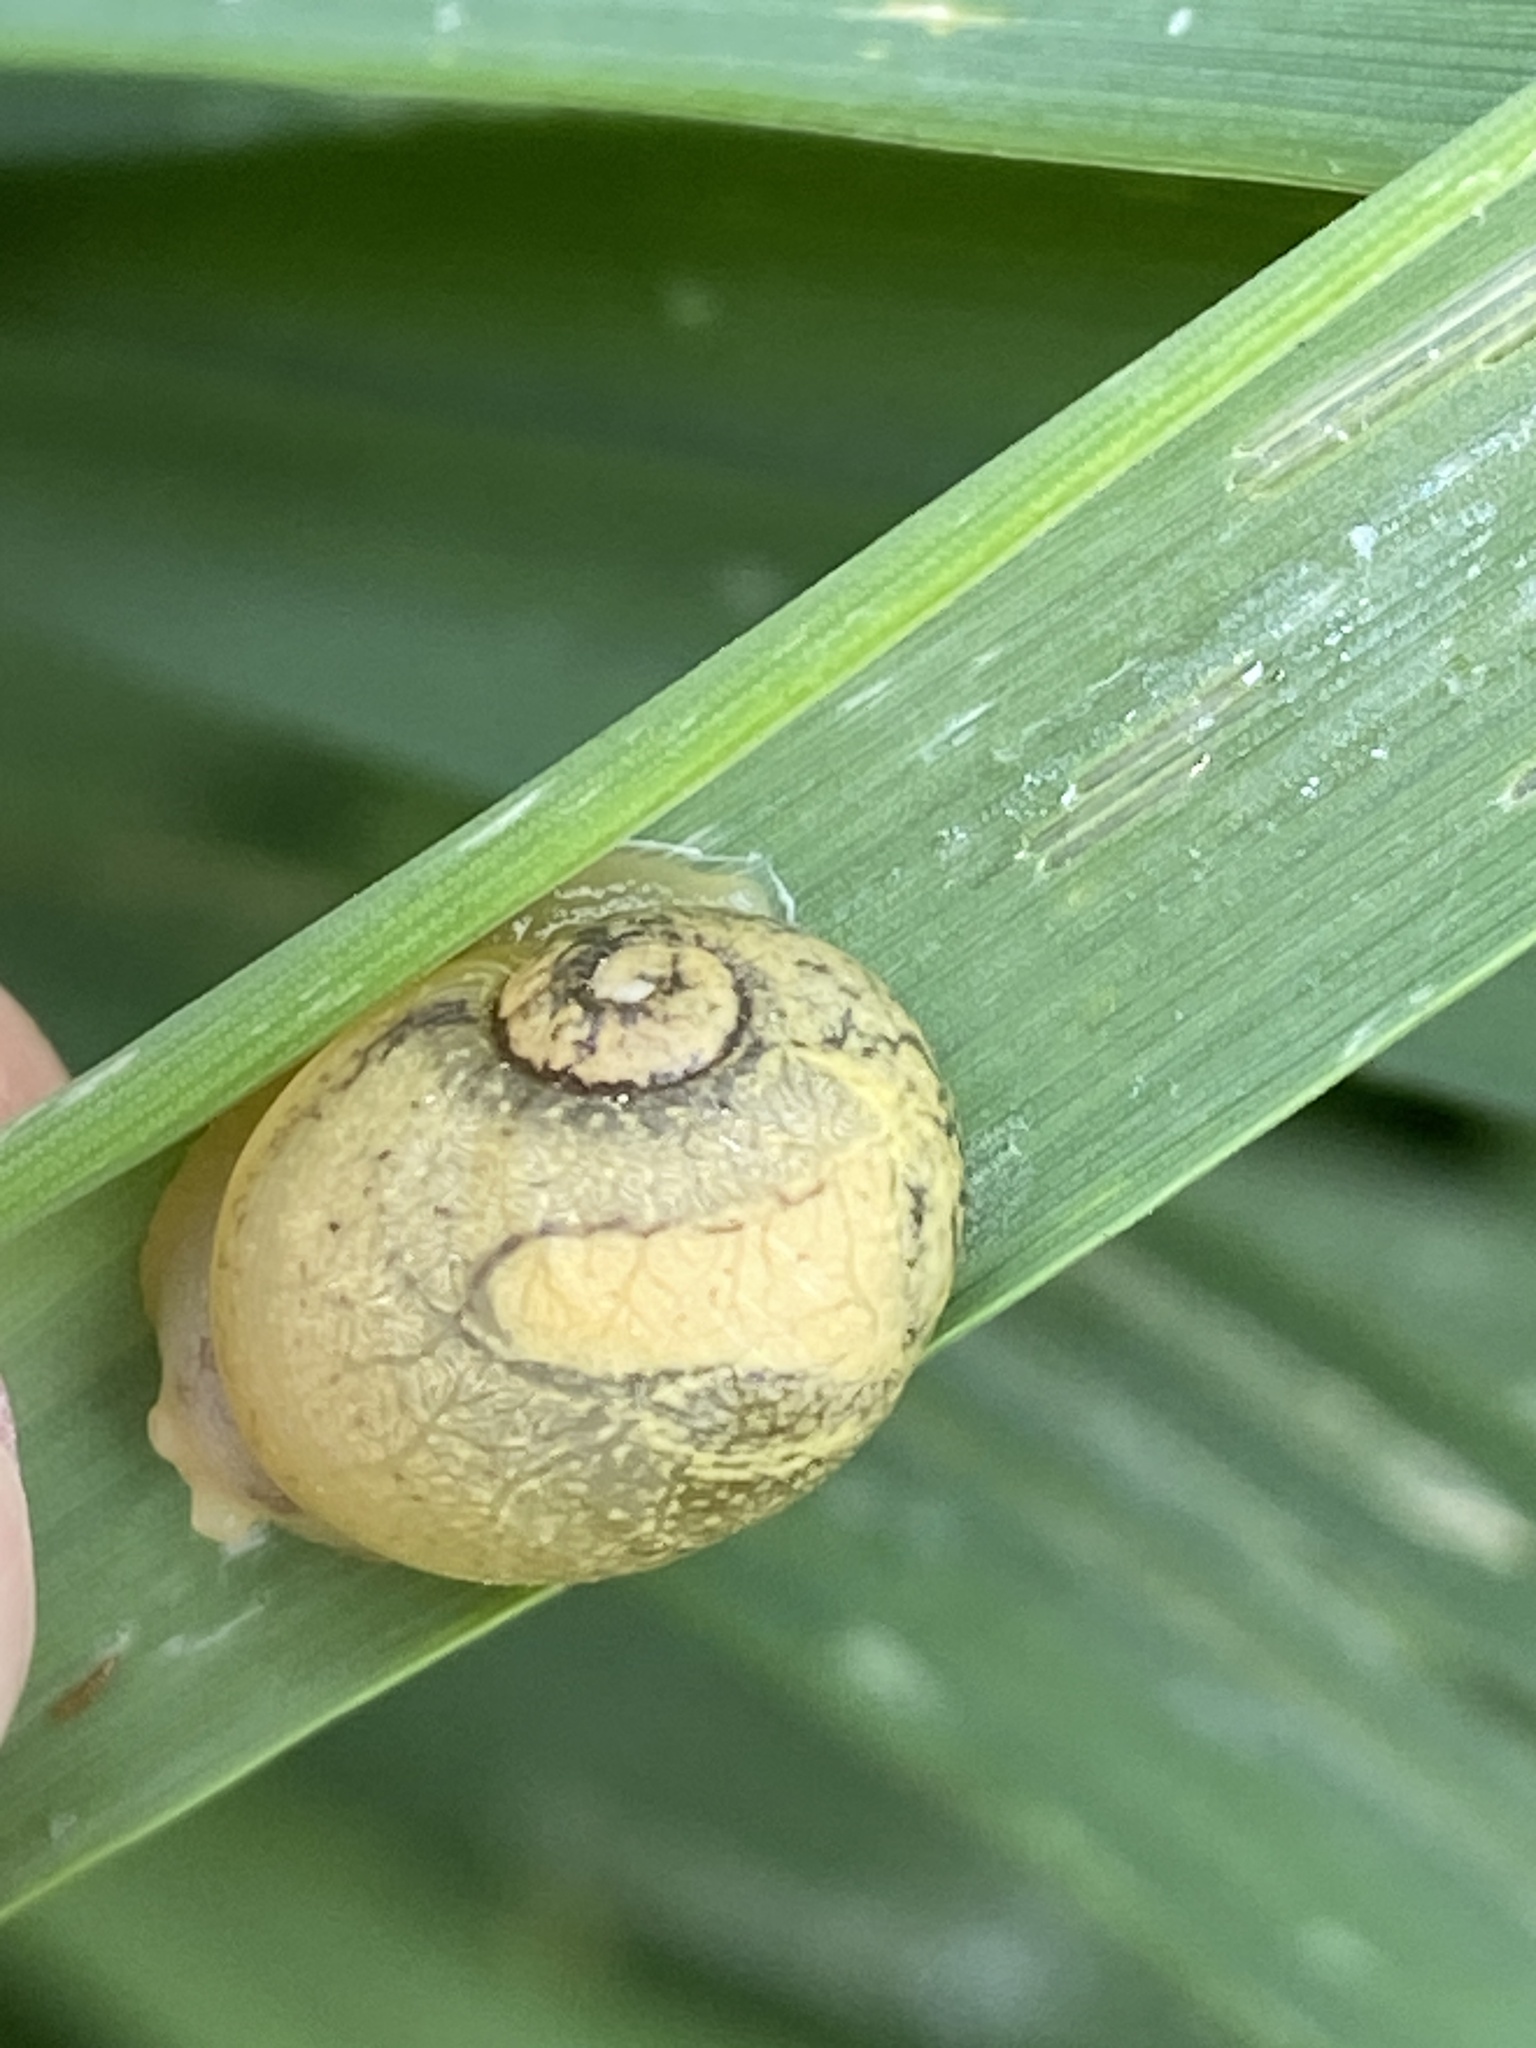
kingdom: Animalia
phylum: Mollusca
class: Gastropoda
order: Stylommatophora
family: Helicidae
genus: Cantareus
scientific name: Cantareus apertus
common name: Green gardensnail
